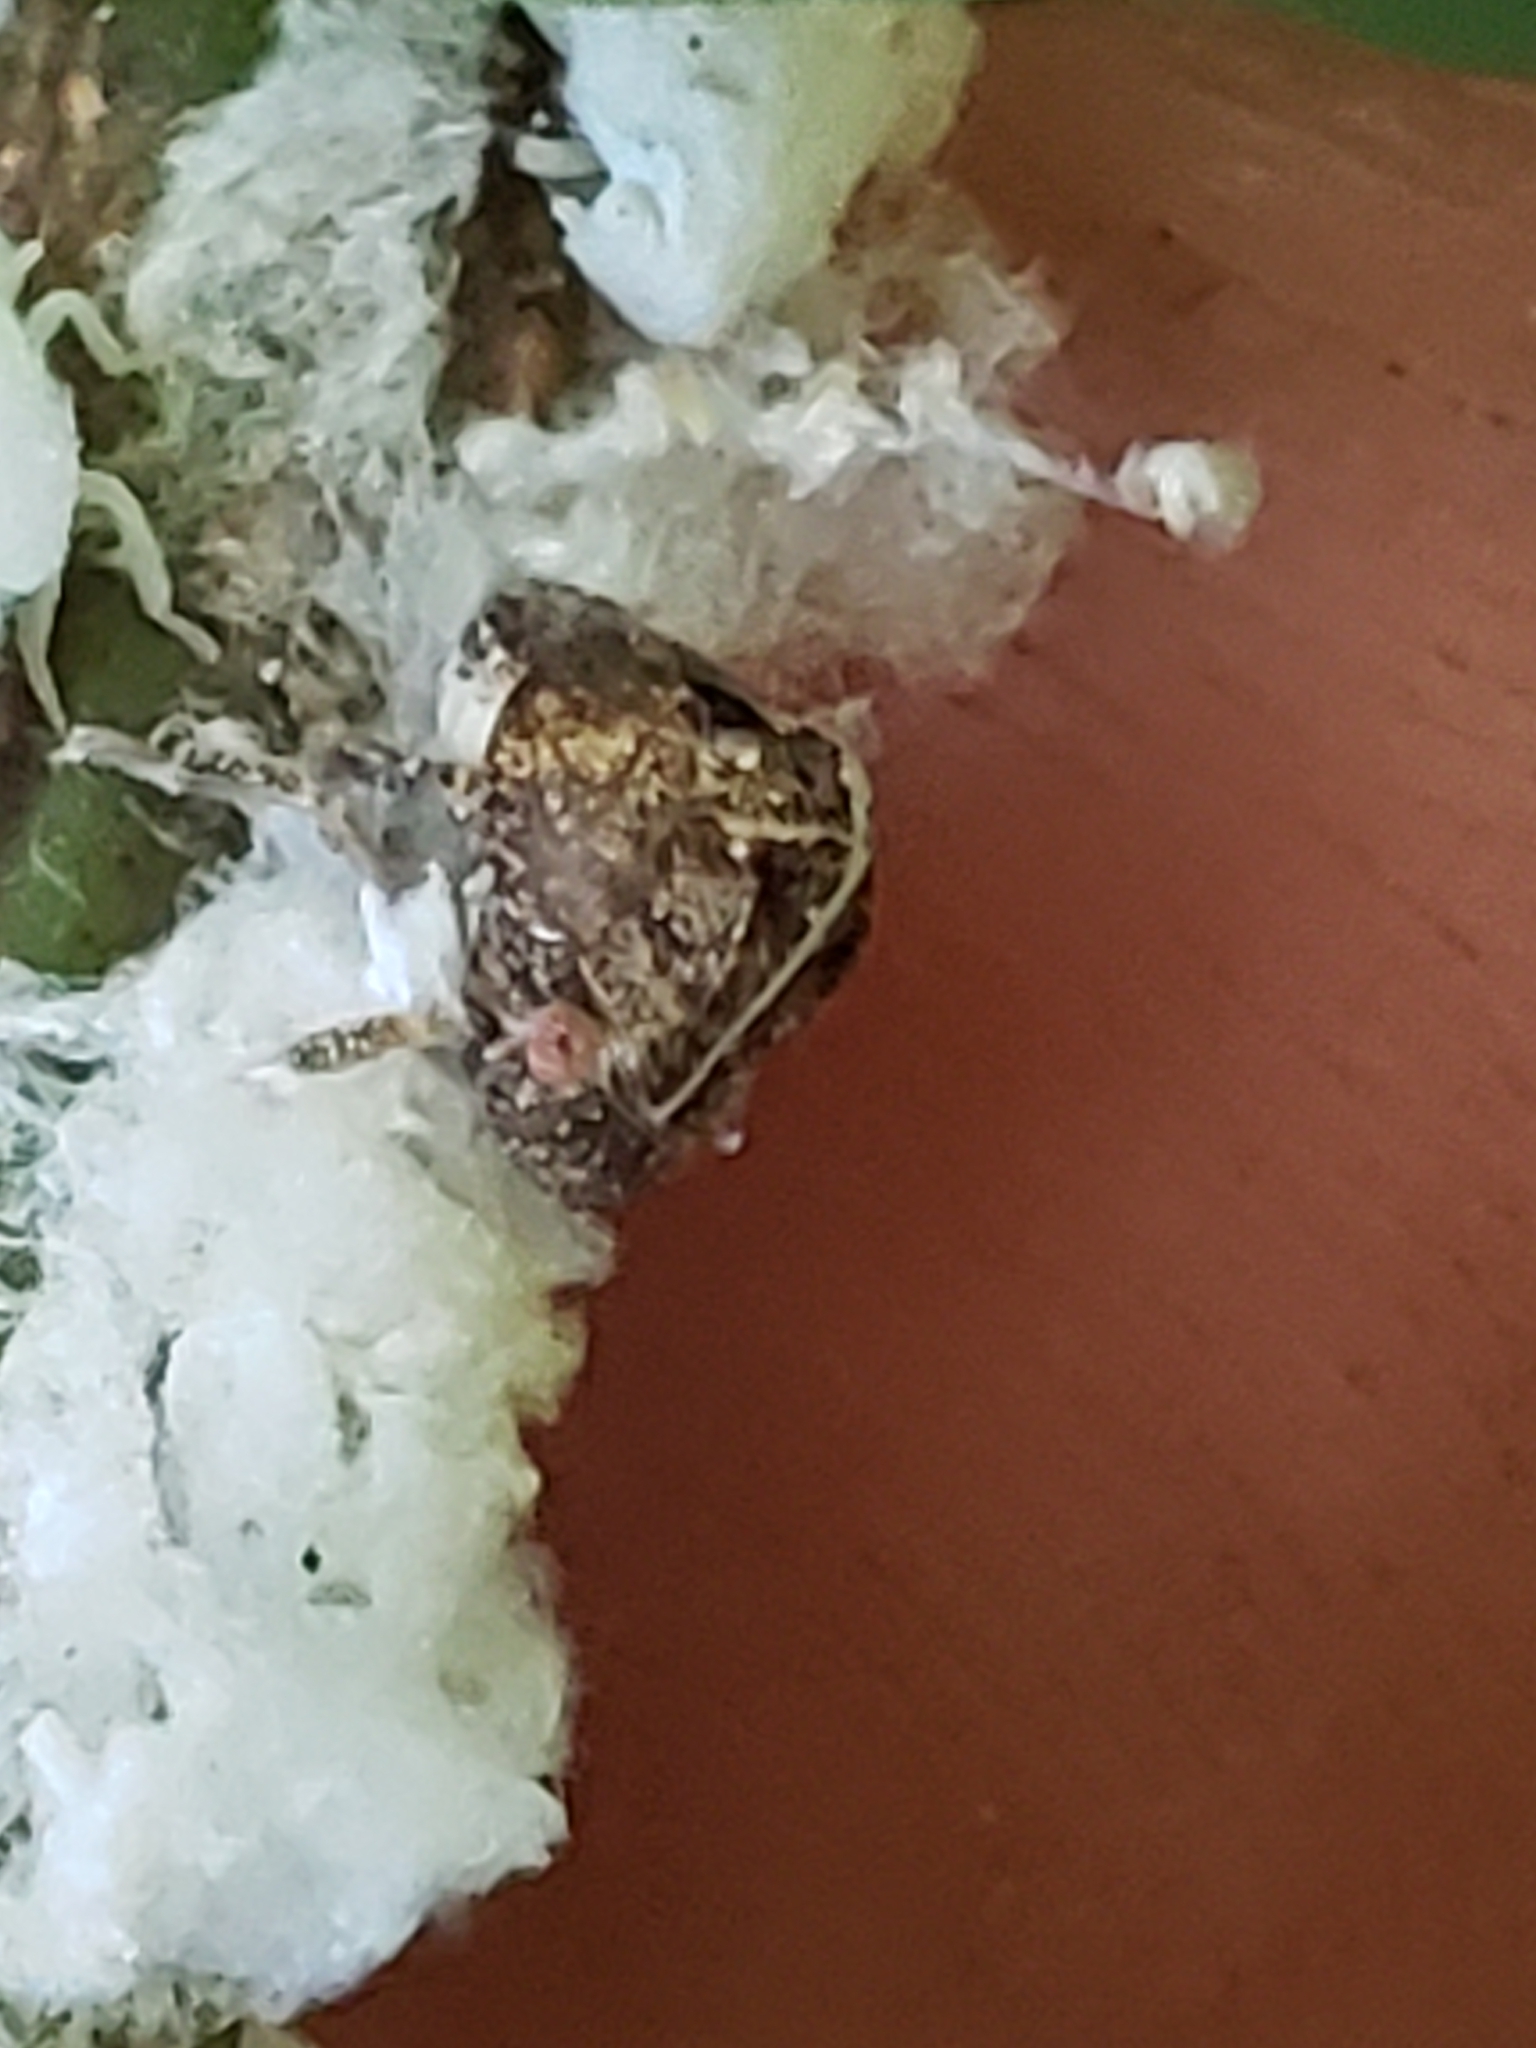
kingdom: Animalia
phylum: Arthropoda
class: Insecta
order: Hemiptera
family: Acanaloniidae
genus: Acanalonia
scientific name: Acanalonia bivittata
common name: Two-striped planthopper
